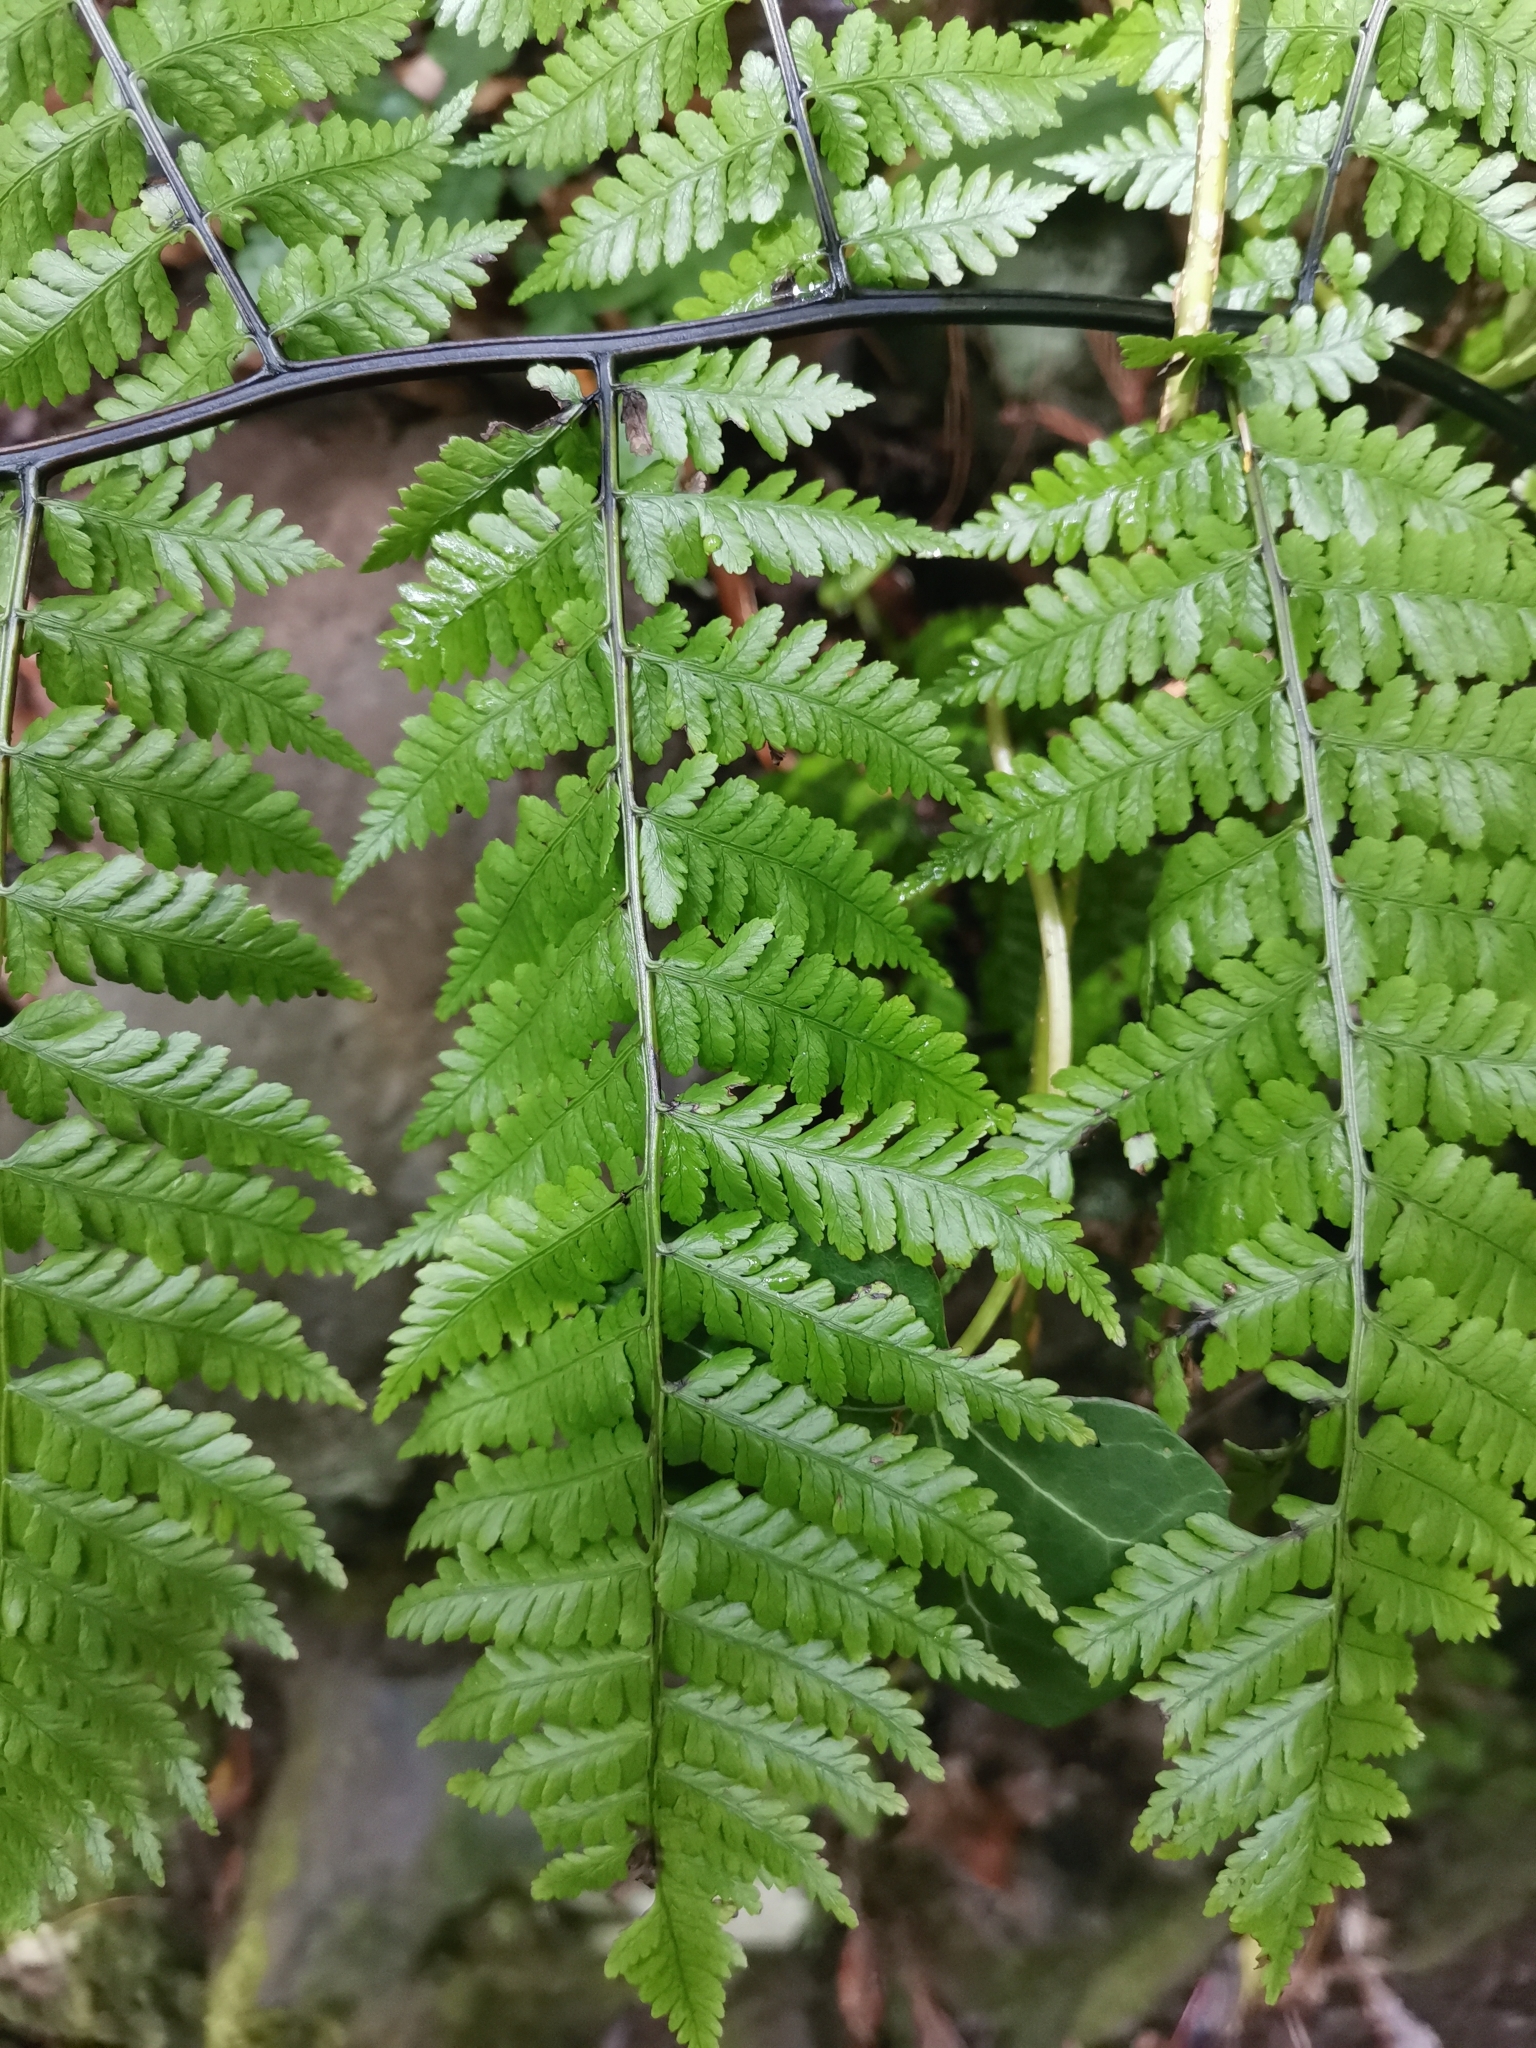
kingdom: Plantae
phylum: Tracheophyta
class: Polypodiopsida
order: Polypodiales
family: Athyriaceae
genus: Diplazium
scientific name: Diplazium caudatum
